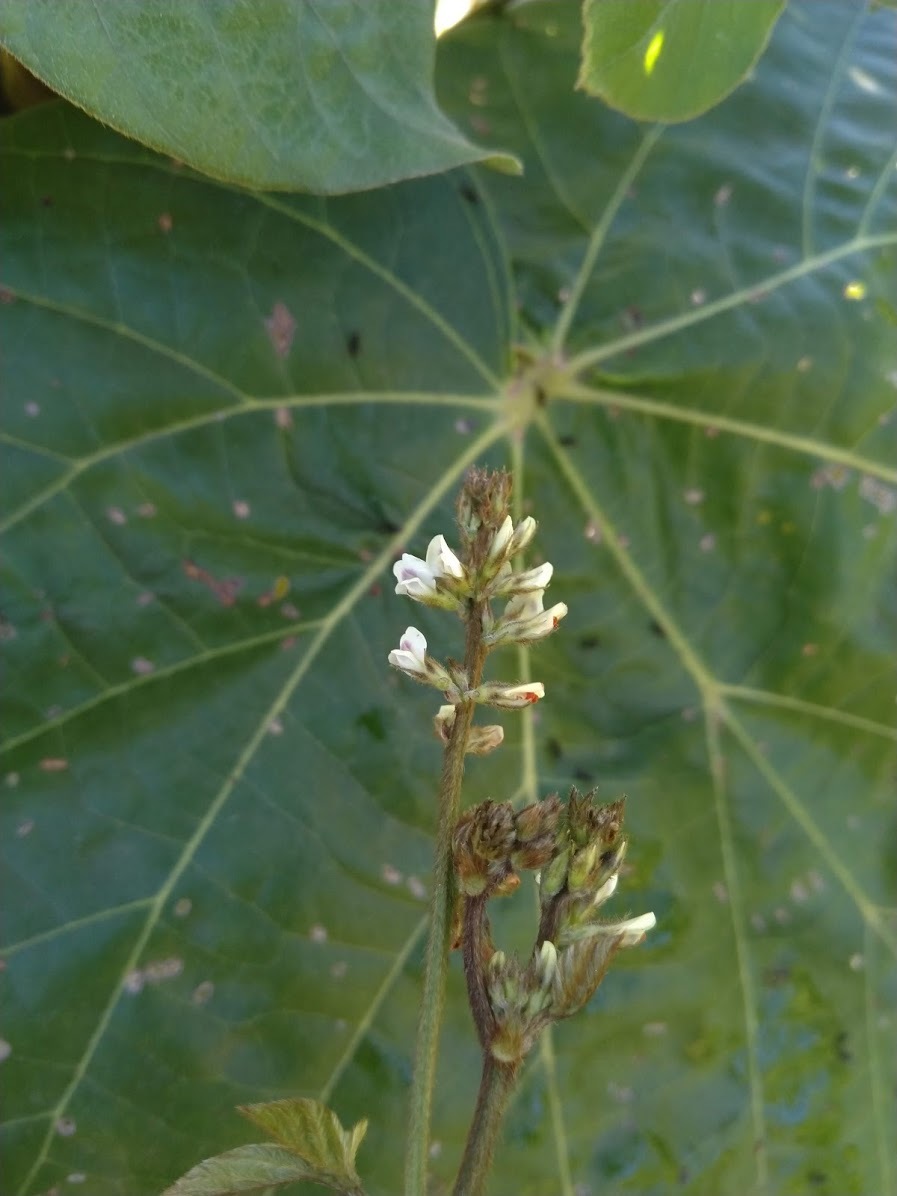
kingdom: Plantae
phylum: Tracheophyta
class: Magnoliopsida
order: Fabales
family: Fabaceae
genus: Neonotonia
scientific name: Neonotonia wightii
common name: Perennial soybean
